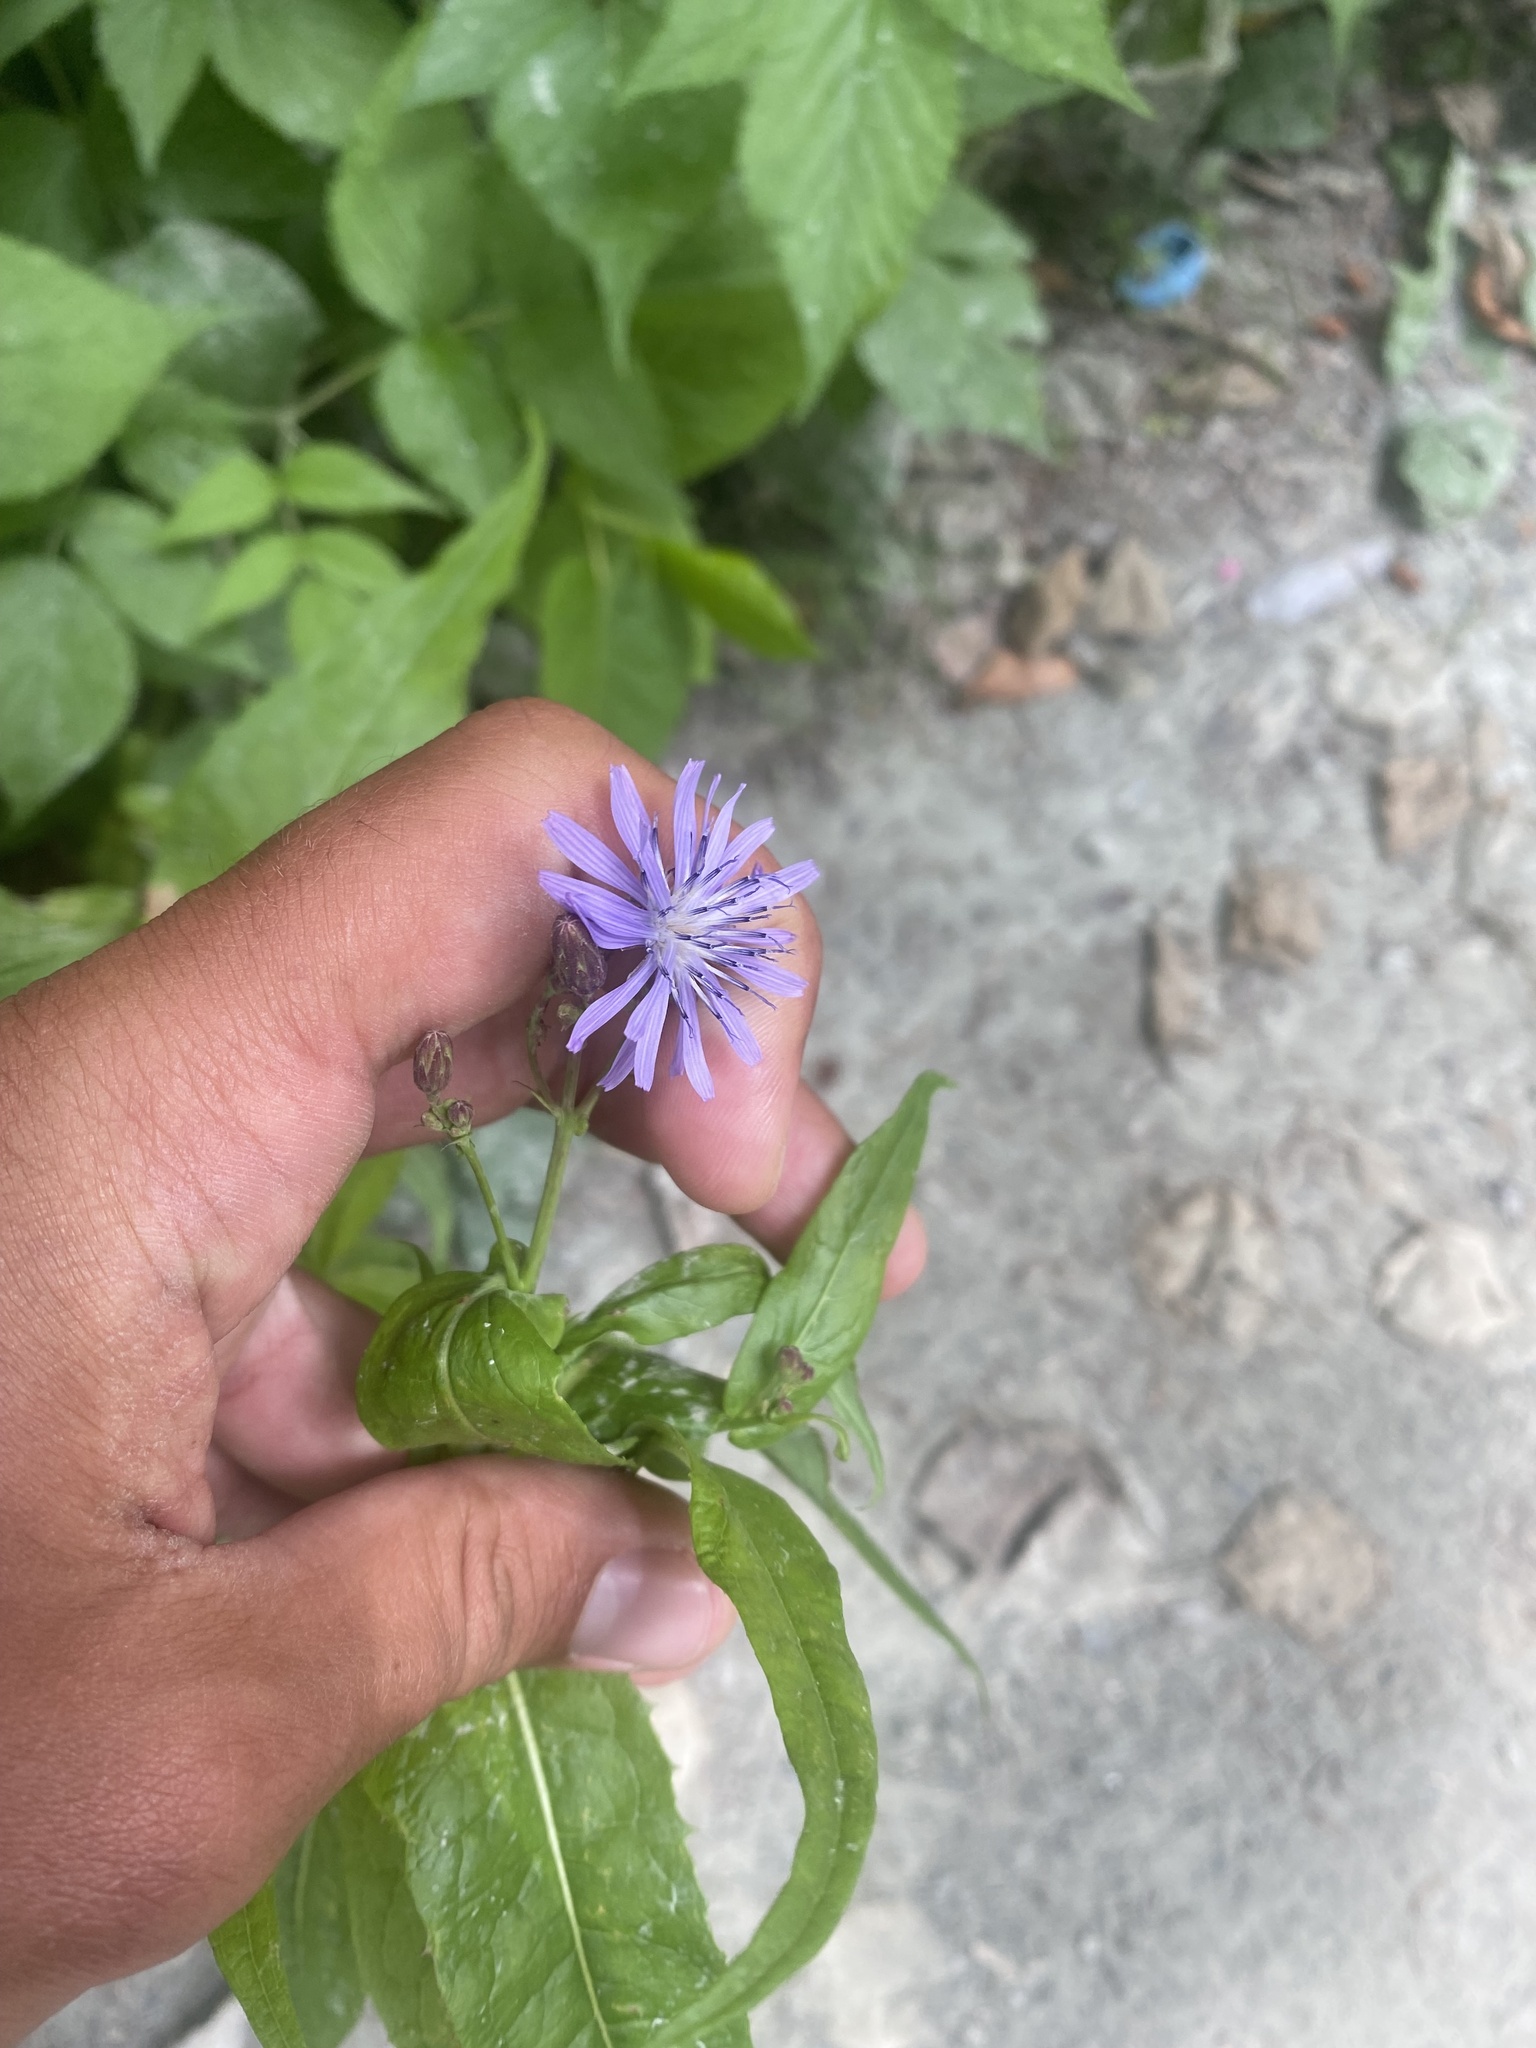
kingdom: Plantae
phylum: Tracheophyta
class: Magnoliopsida
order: Asterales
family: Asteraceae
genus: Lactuca
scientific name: Lactuca sibirica
